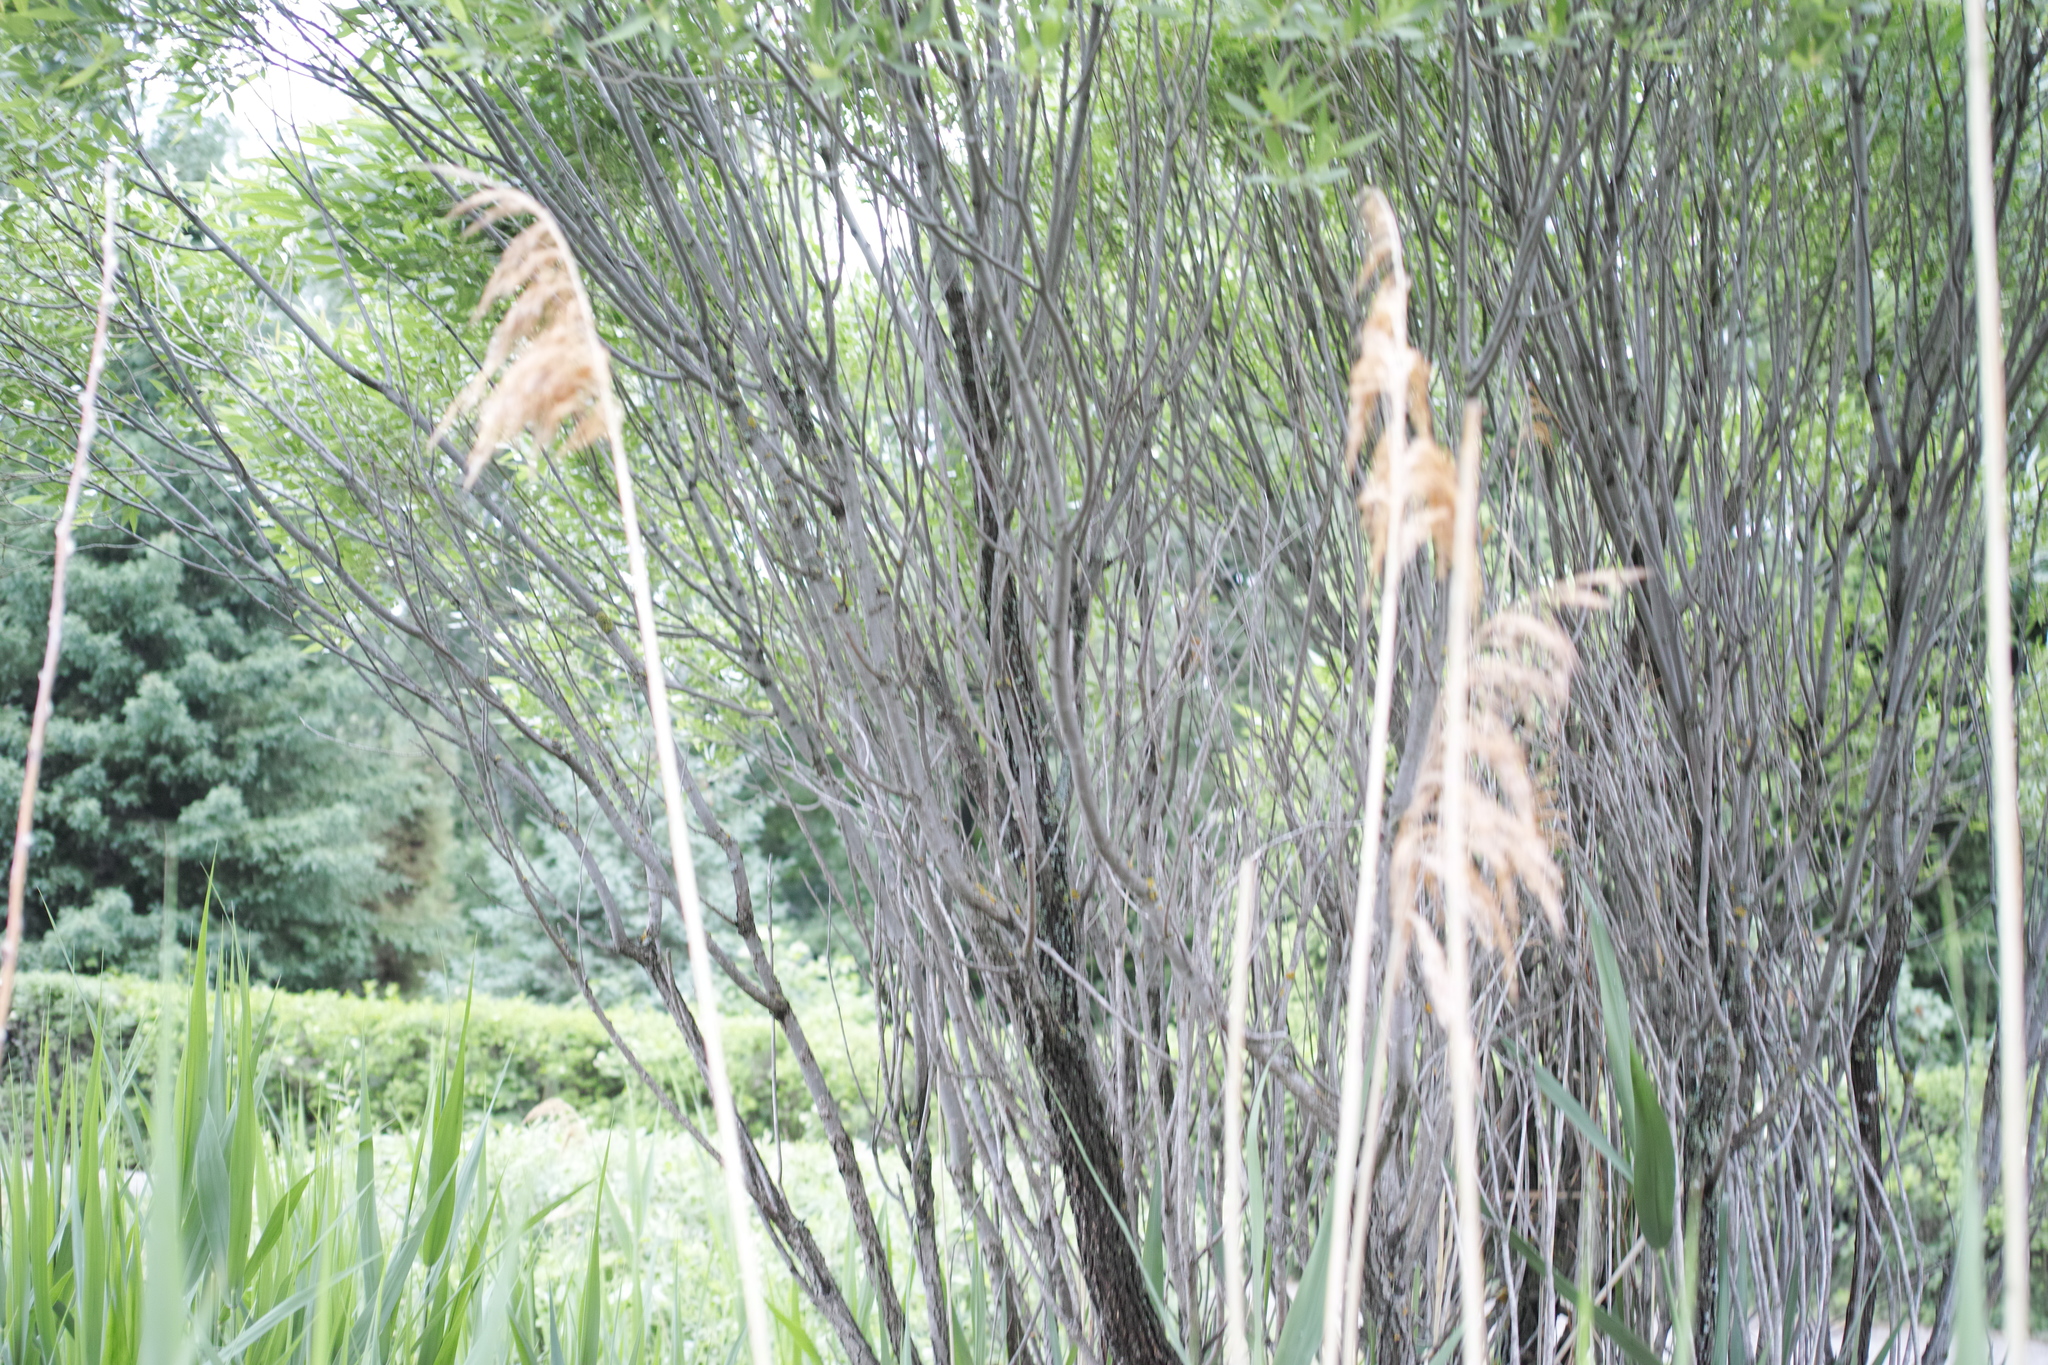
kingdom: Plantae
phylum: Tracheophyta
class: Liliopsida
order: Poales
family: Poaceae
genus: Phragmites
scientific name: Phragmites australis
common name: Common reed
